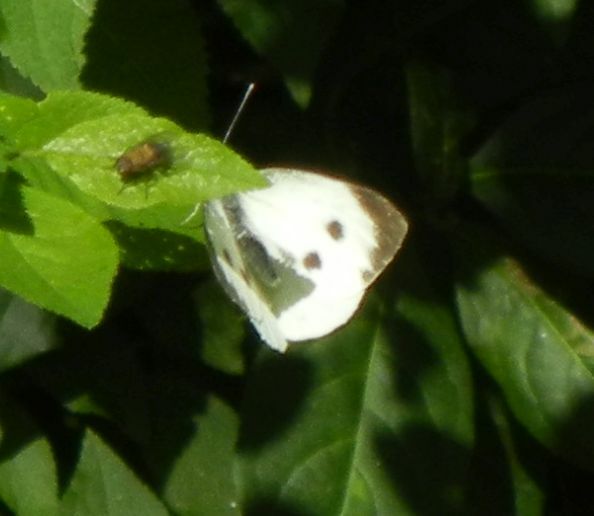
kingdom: Animalia
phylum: Arthropoda
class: Insecta
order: Lepidoptera
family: Pieridae
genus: Pieris
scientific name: Pieris brassicae
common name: Large white
